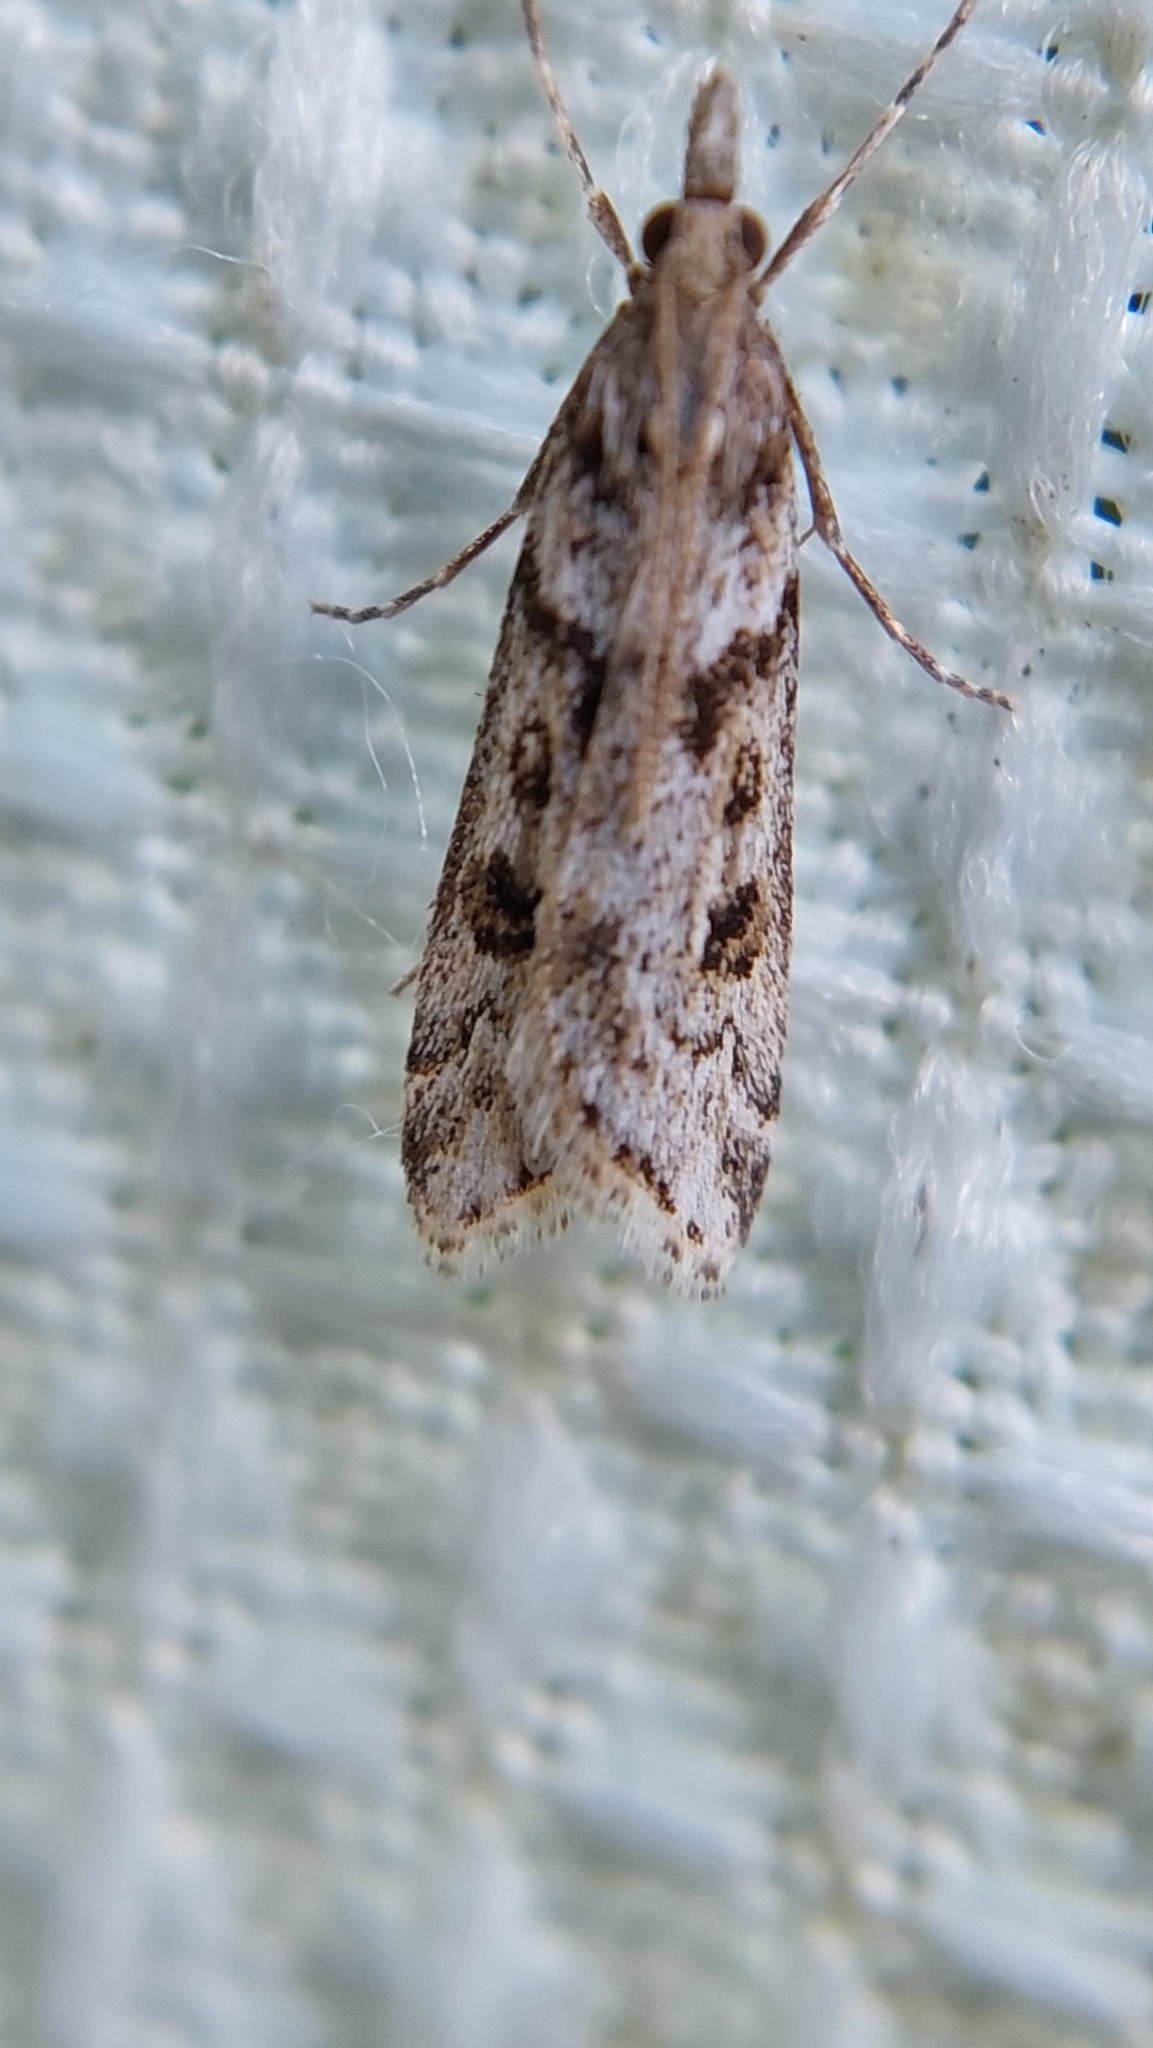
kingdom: Animalia
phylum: Arthropoda
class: Insecta
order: Lepidoptera
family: Crambidae
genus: Eudonia
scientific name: Eudonia angustea
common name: Narrow-winged grey
